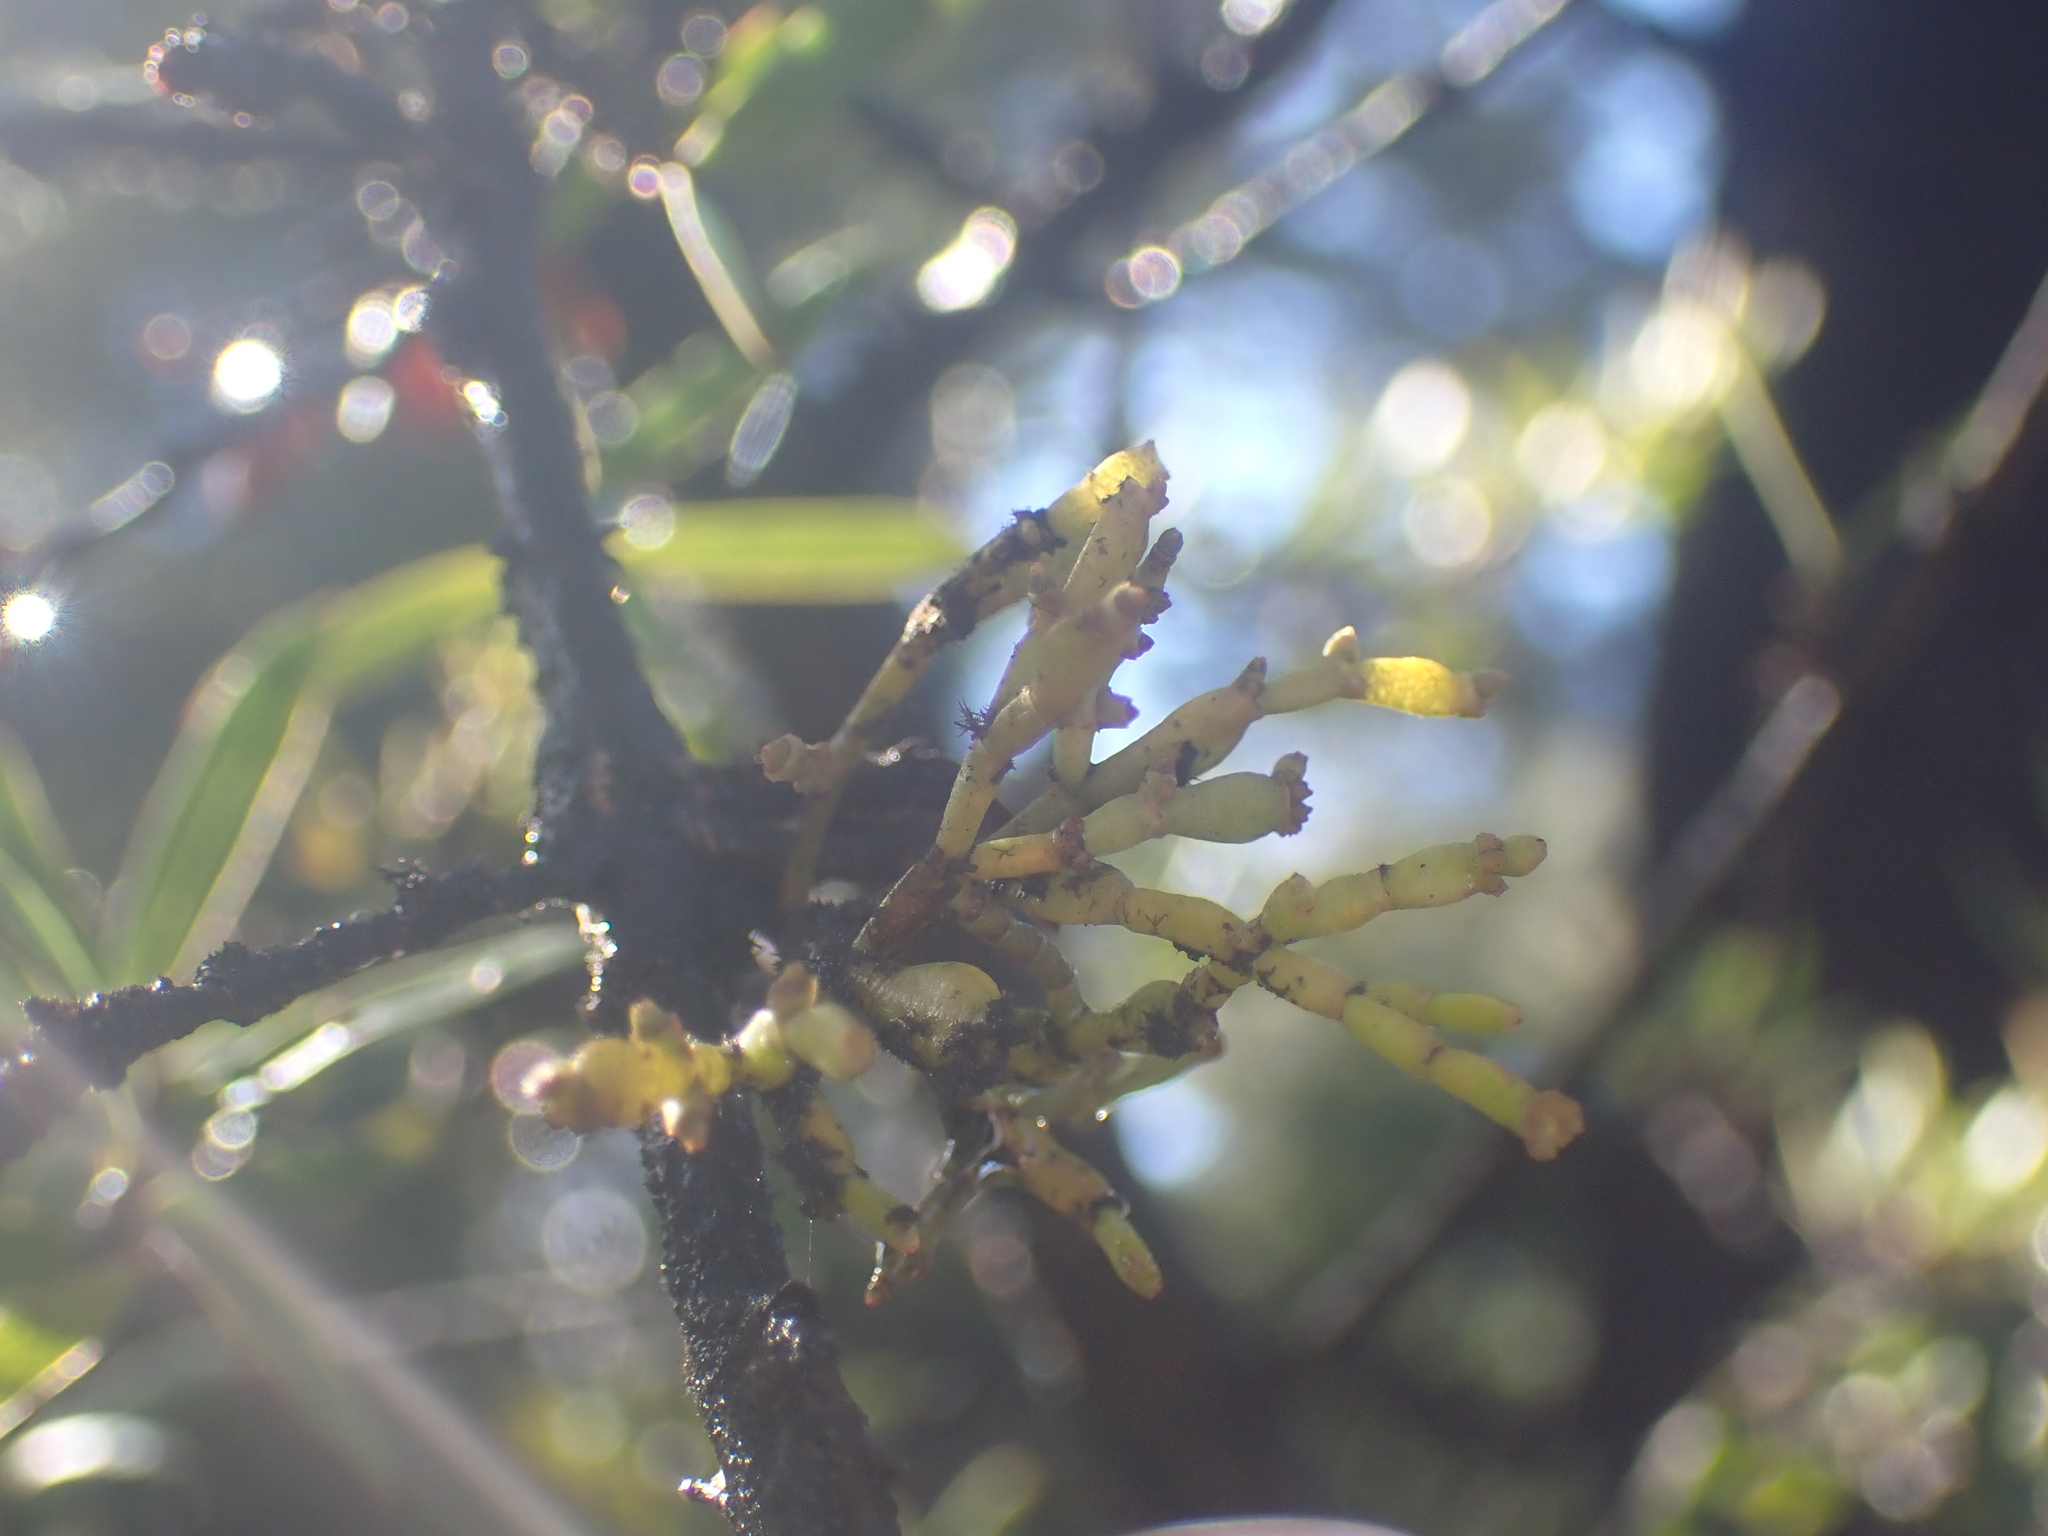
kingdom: Plantae
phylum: Tracheophyta
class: Magnoliopsida
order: Santalales
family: Viscaceae
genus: Korthalsella
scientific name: Korthalsella clavata
